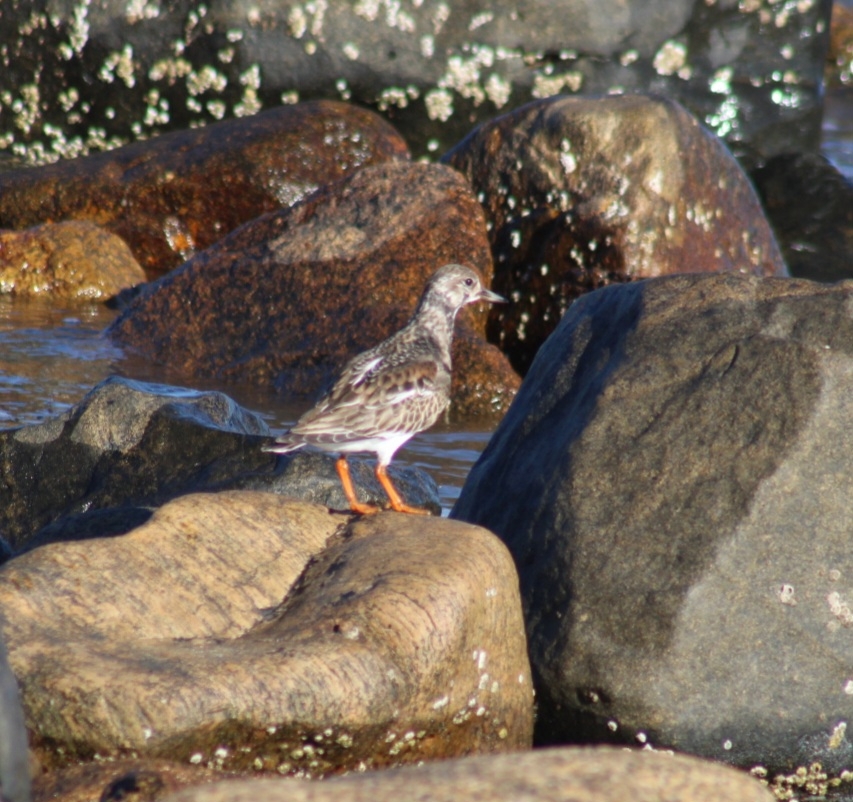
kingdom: Animalia
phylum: Chordata
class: Aves
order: Charadriiformes
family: Scolopacidae
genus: Arenaria
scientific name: Arenaria interpres
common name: Ruddy turnstone
